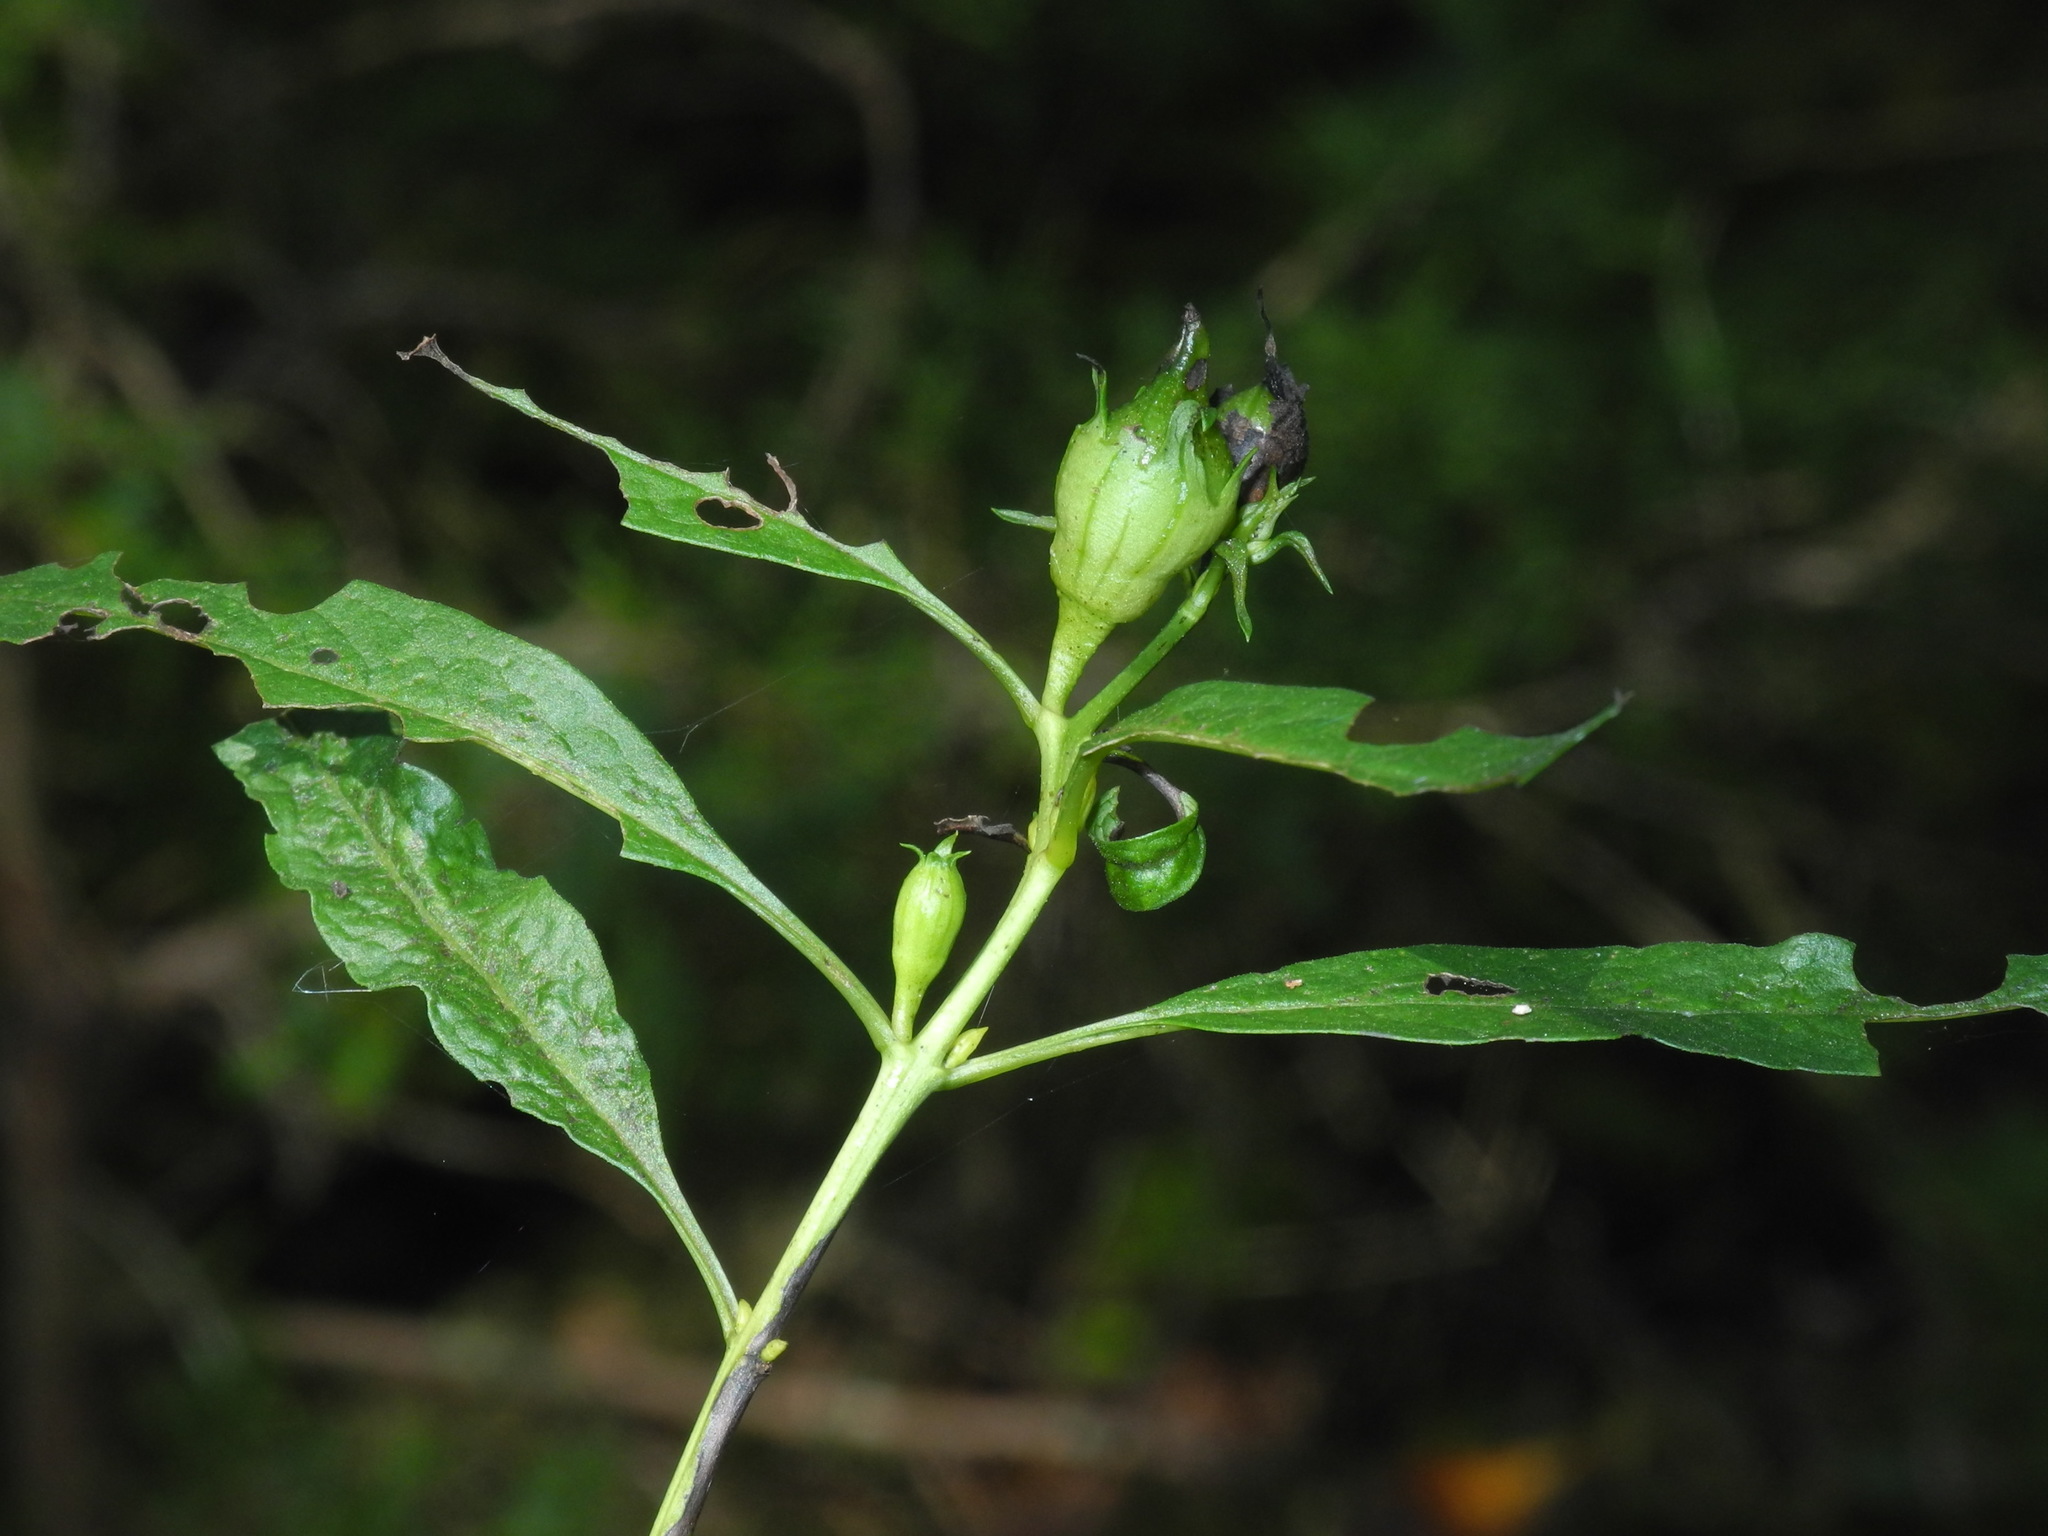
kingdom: Plantae
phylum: Tracheophyta
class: Magnoliopsida
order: Lamiales
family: Orobanchaceae
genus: Aureolaria
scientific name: Aureolaria flava
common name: Smooth false foxglove
